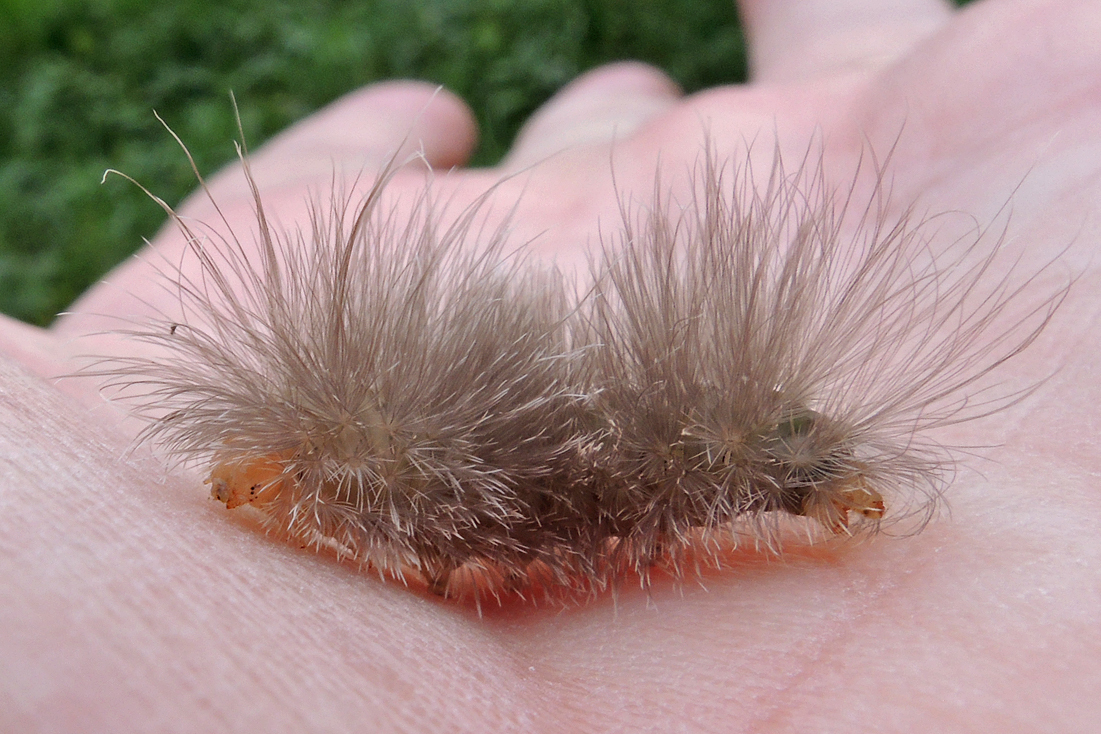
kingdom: Animalia
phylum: Arthropoda
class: Insecta
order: Lepidoptera
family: Erebidae
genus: Cycnia
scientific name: Cycnia tenera
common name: Delicate cycnia moth
